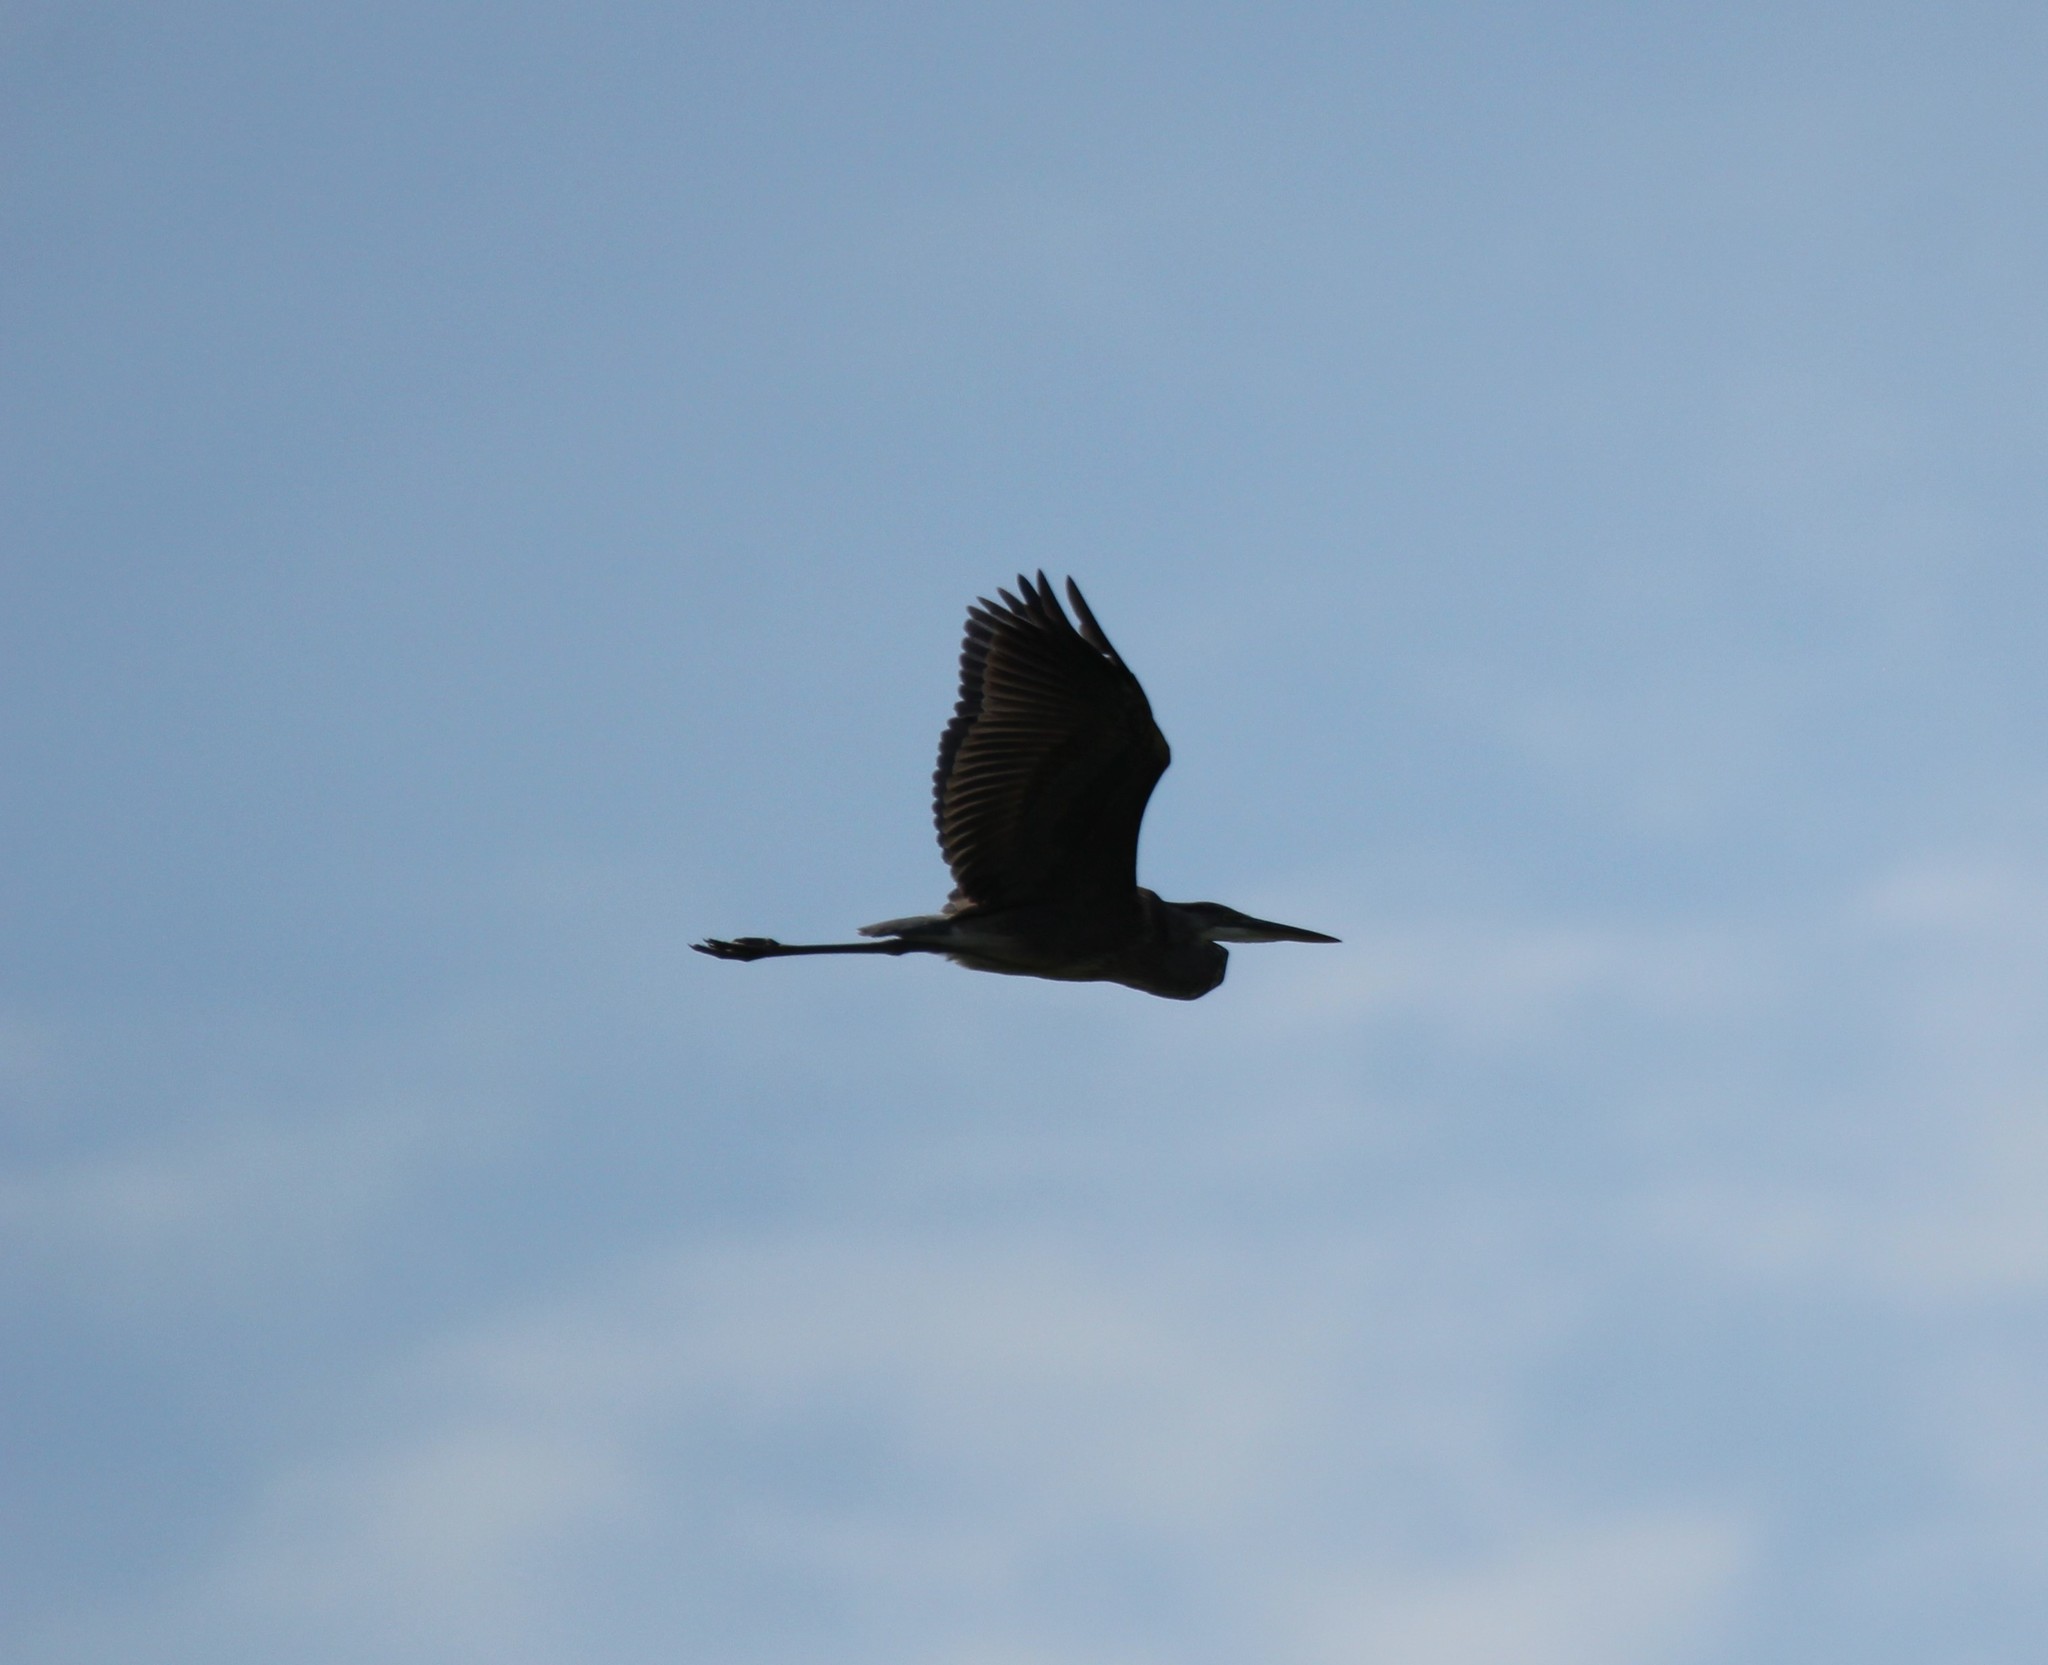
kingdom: Animalia
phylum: Chordata
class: Aves
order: Pelecaniformes
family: Ardeidae
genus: Ardea
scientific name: Ardea herodias
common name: Great blue heron
